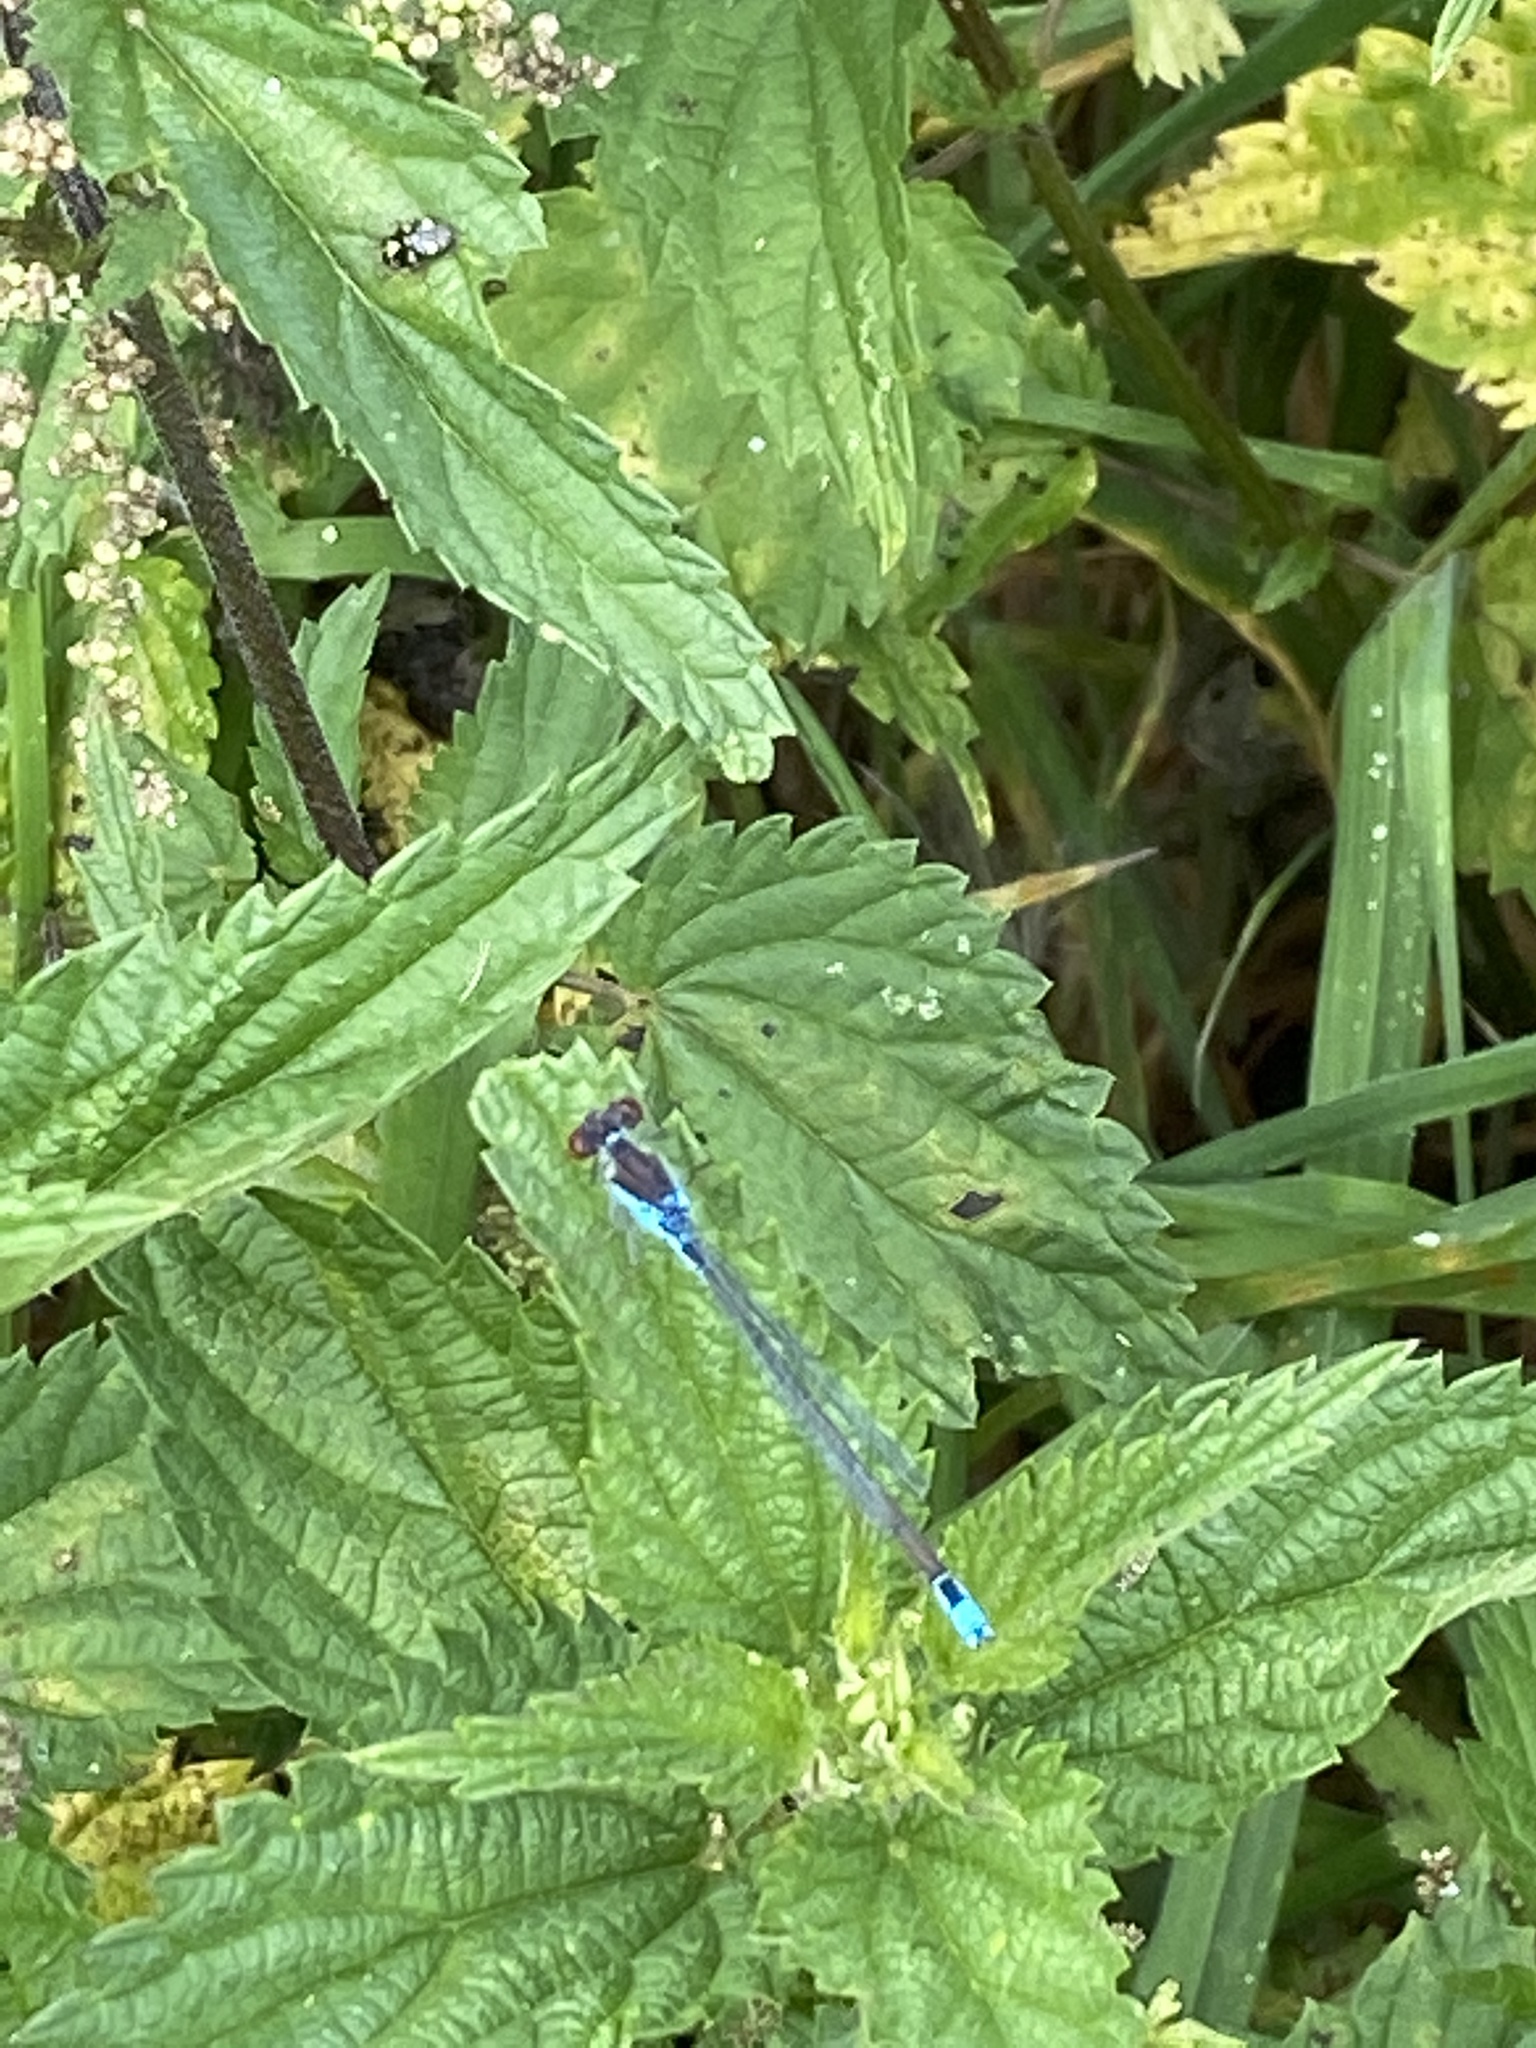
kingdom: Animalia
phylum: Arthropoda
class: Insecta
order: Odonata
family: Coenagrionidae
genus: Erythromma
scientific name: Erythromma viridulum
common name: Small red-eyed damselfly
